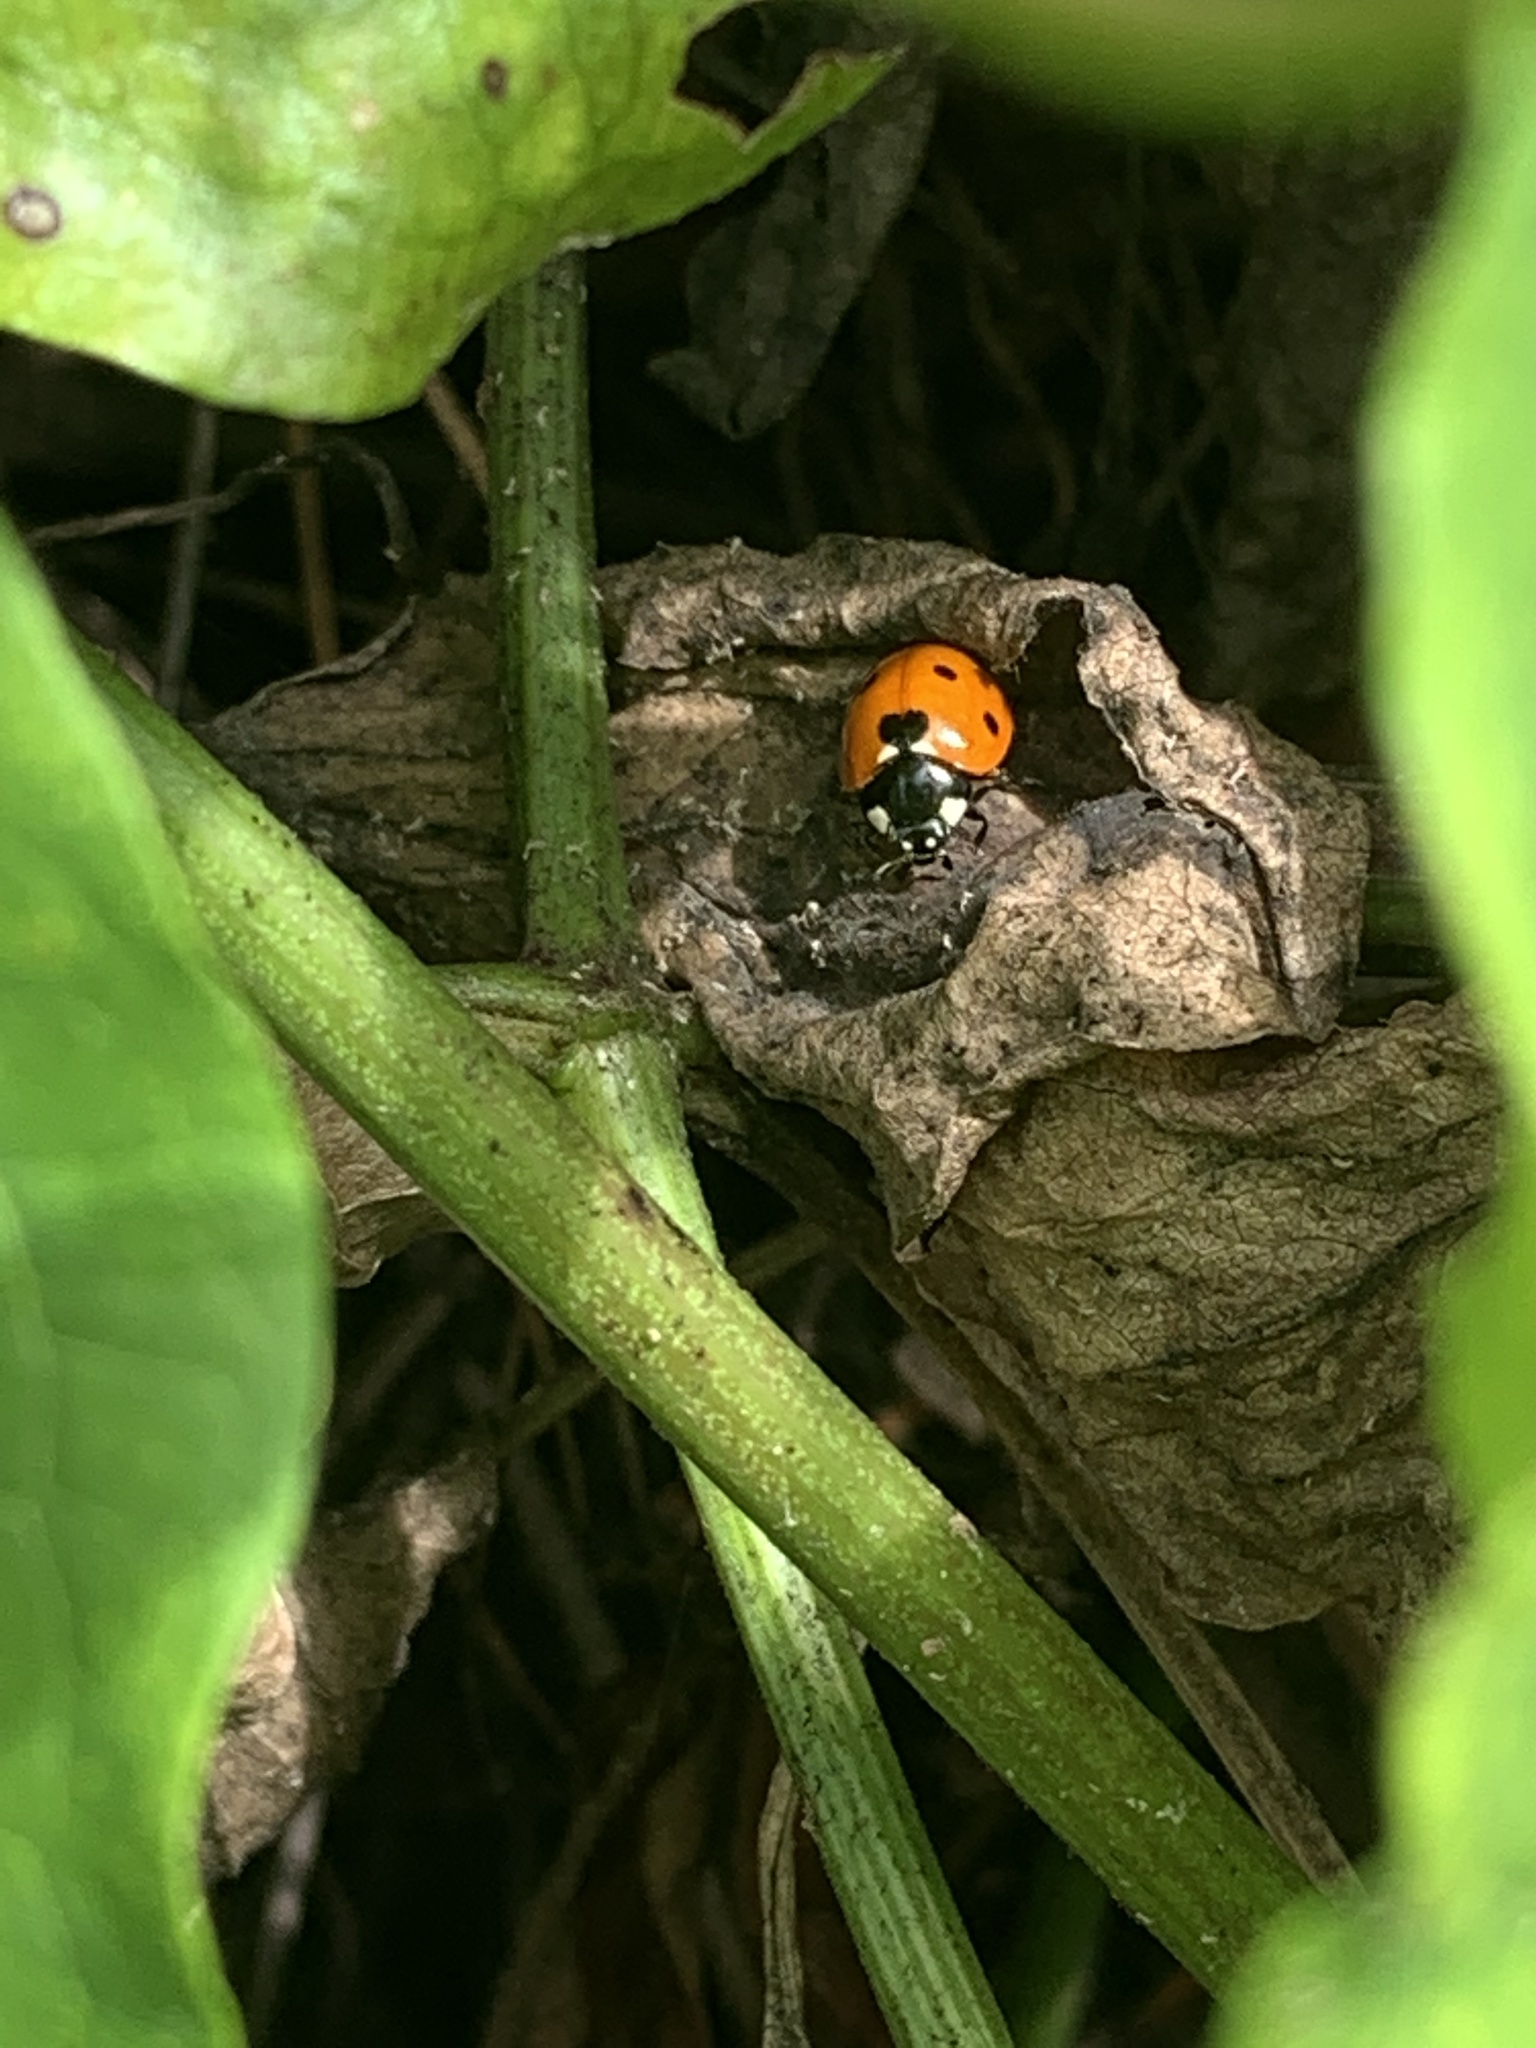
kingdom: Animalia
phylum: Arthropoda
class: Insecta
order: Coleoptera
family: Coccinellidae
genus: Coccinella
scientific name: Coccinella septempunctata
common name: Sevenspotted lady beetle
